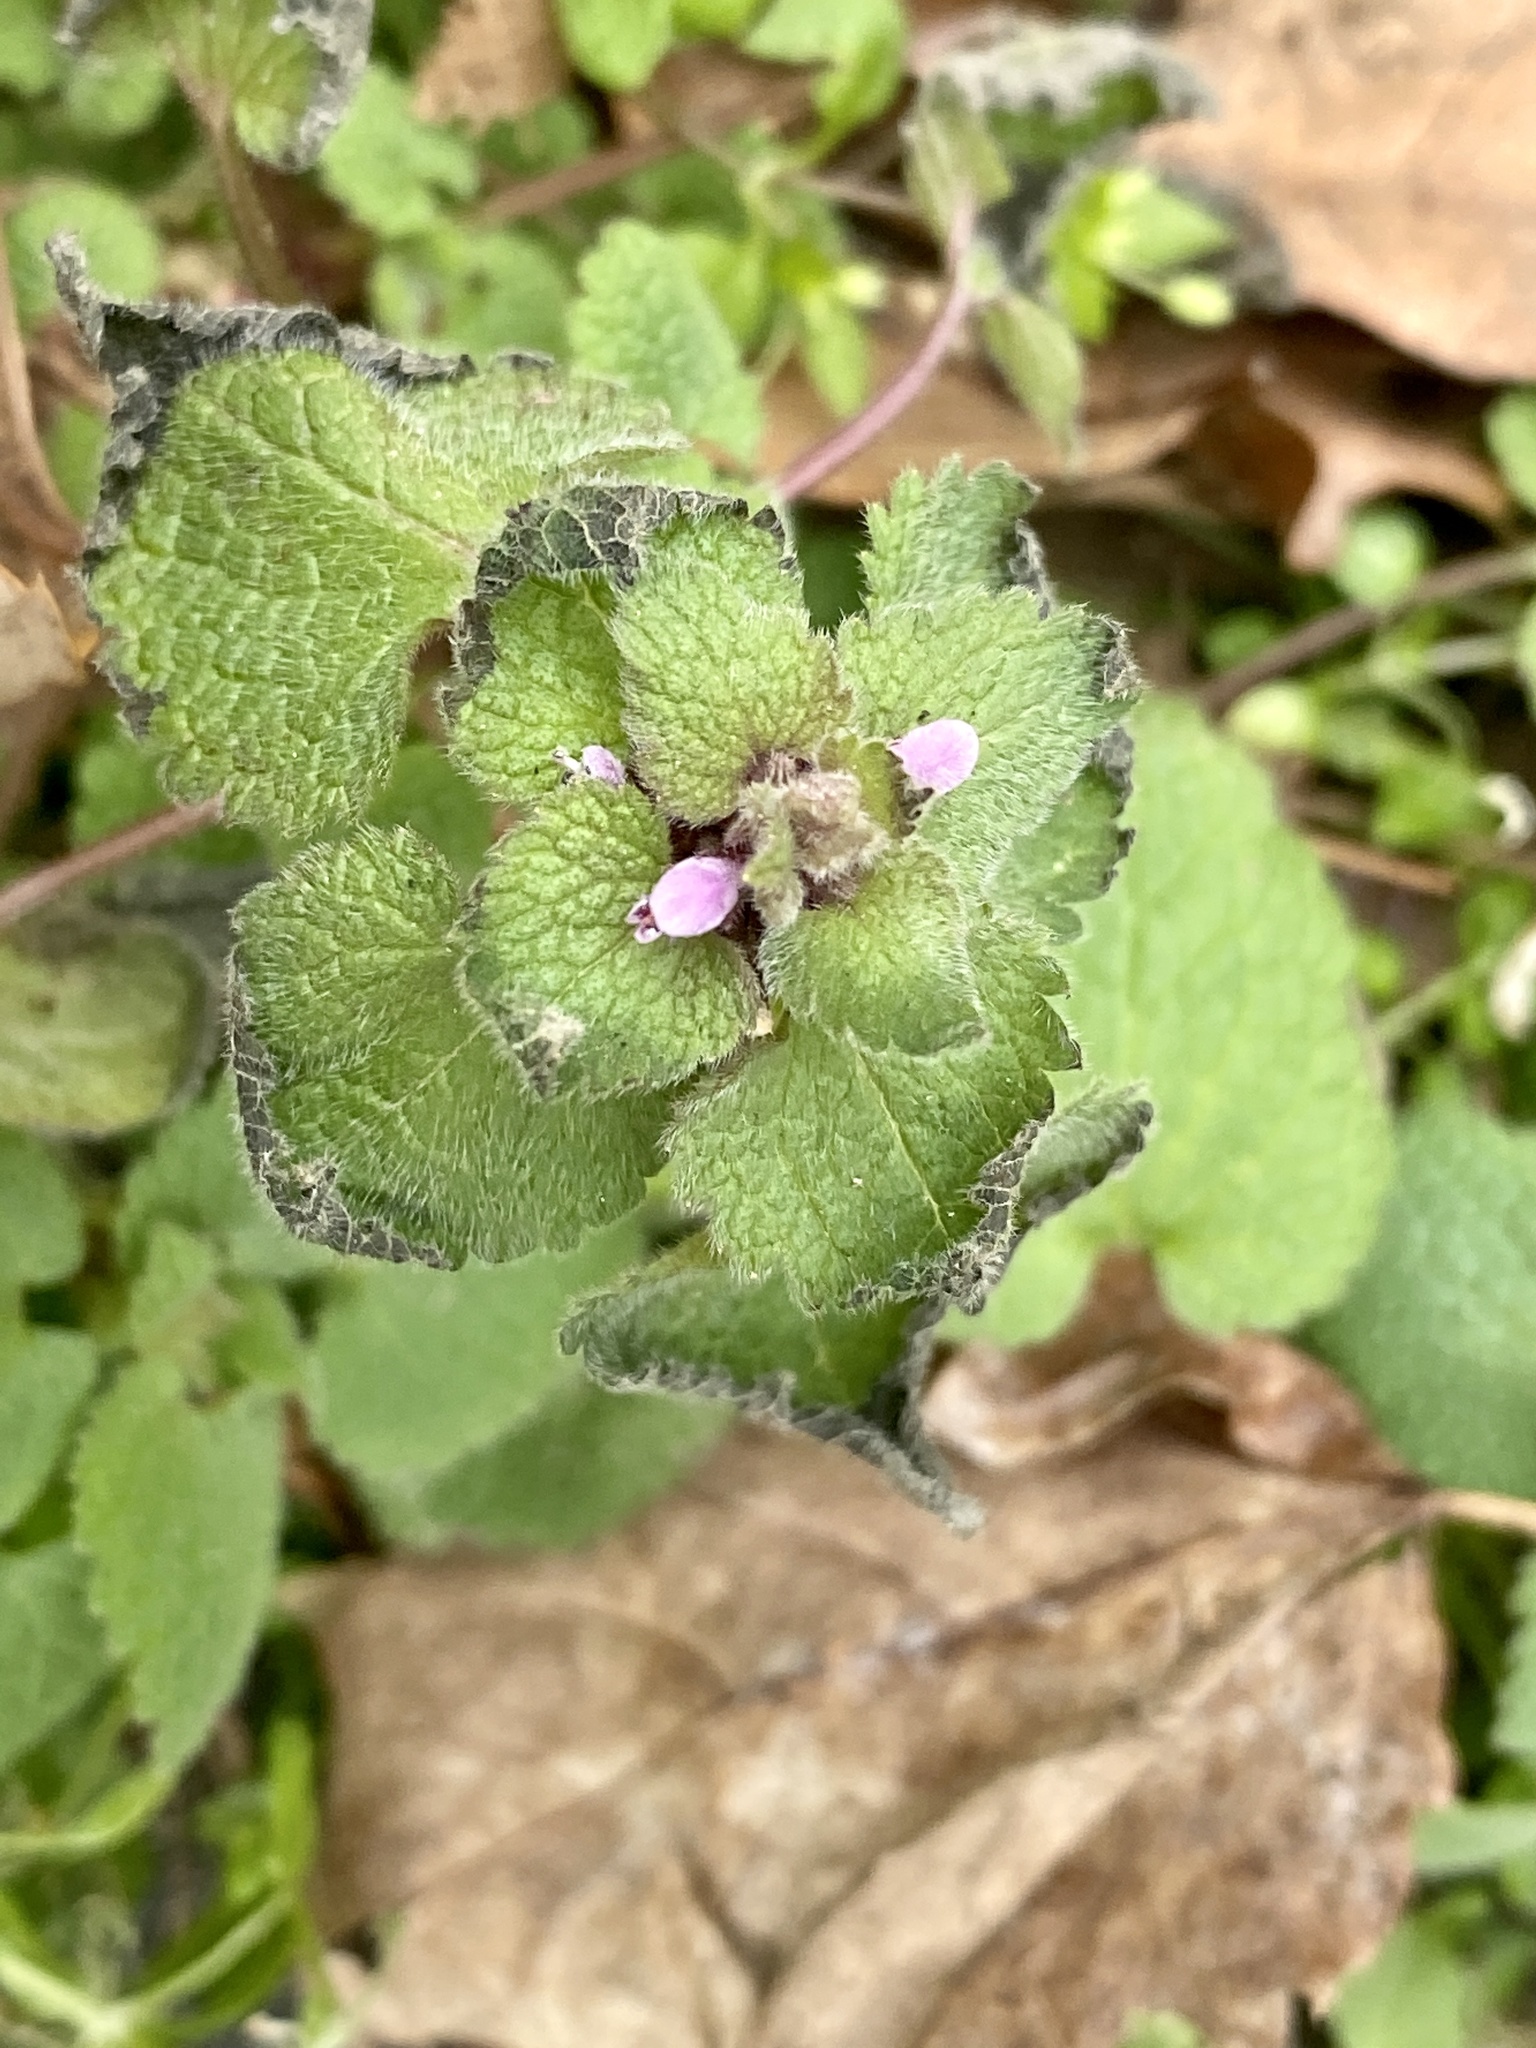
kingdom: Plantae
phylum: Tracheophyta
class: Magnoliopsida
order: Lamiales
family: Lamiaceae
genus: Lamium
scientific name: Lamium purpureum
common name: Red dead-nettle
